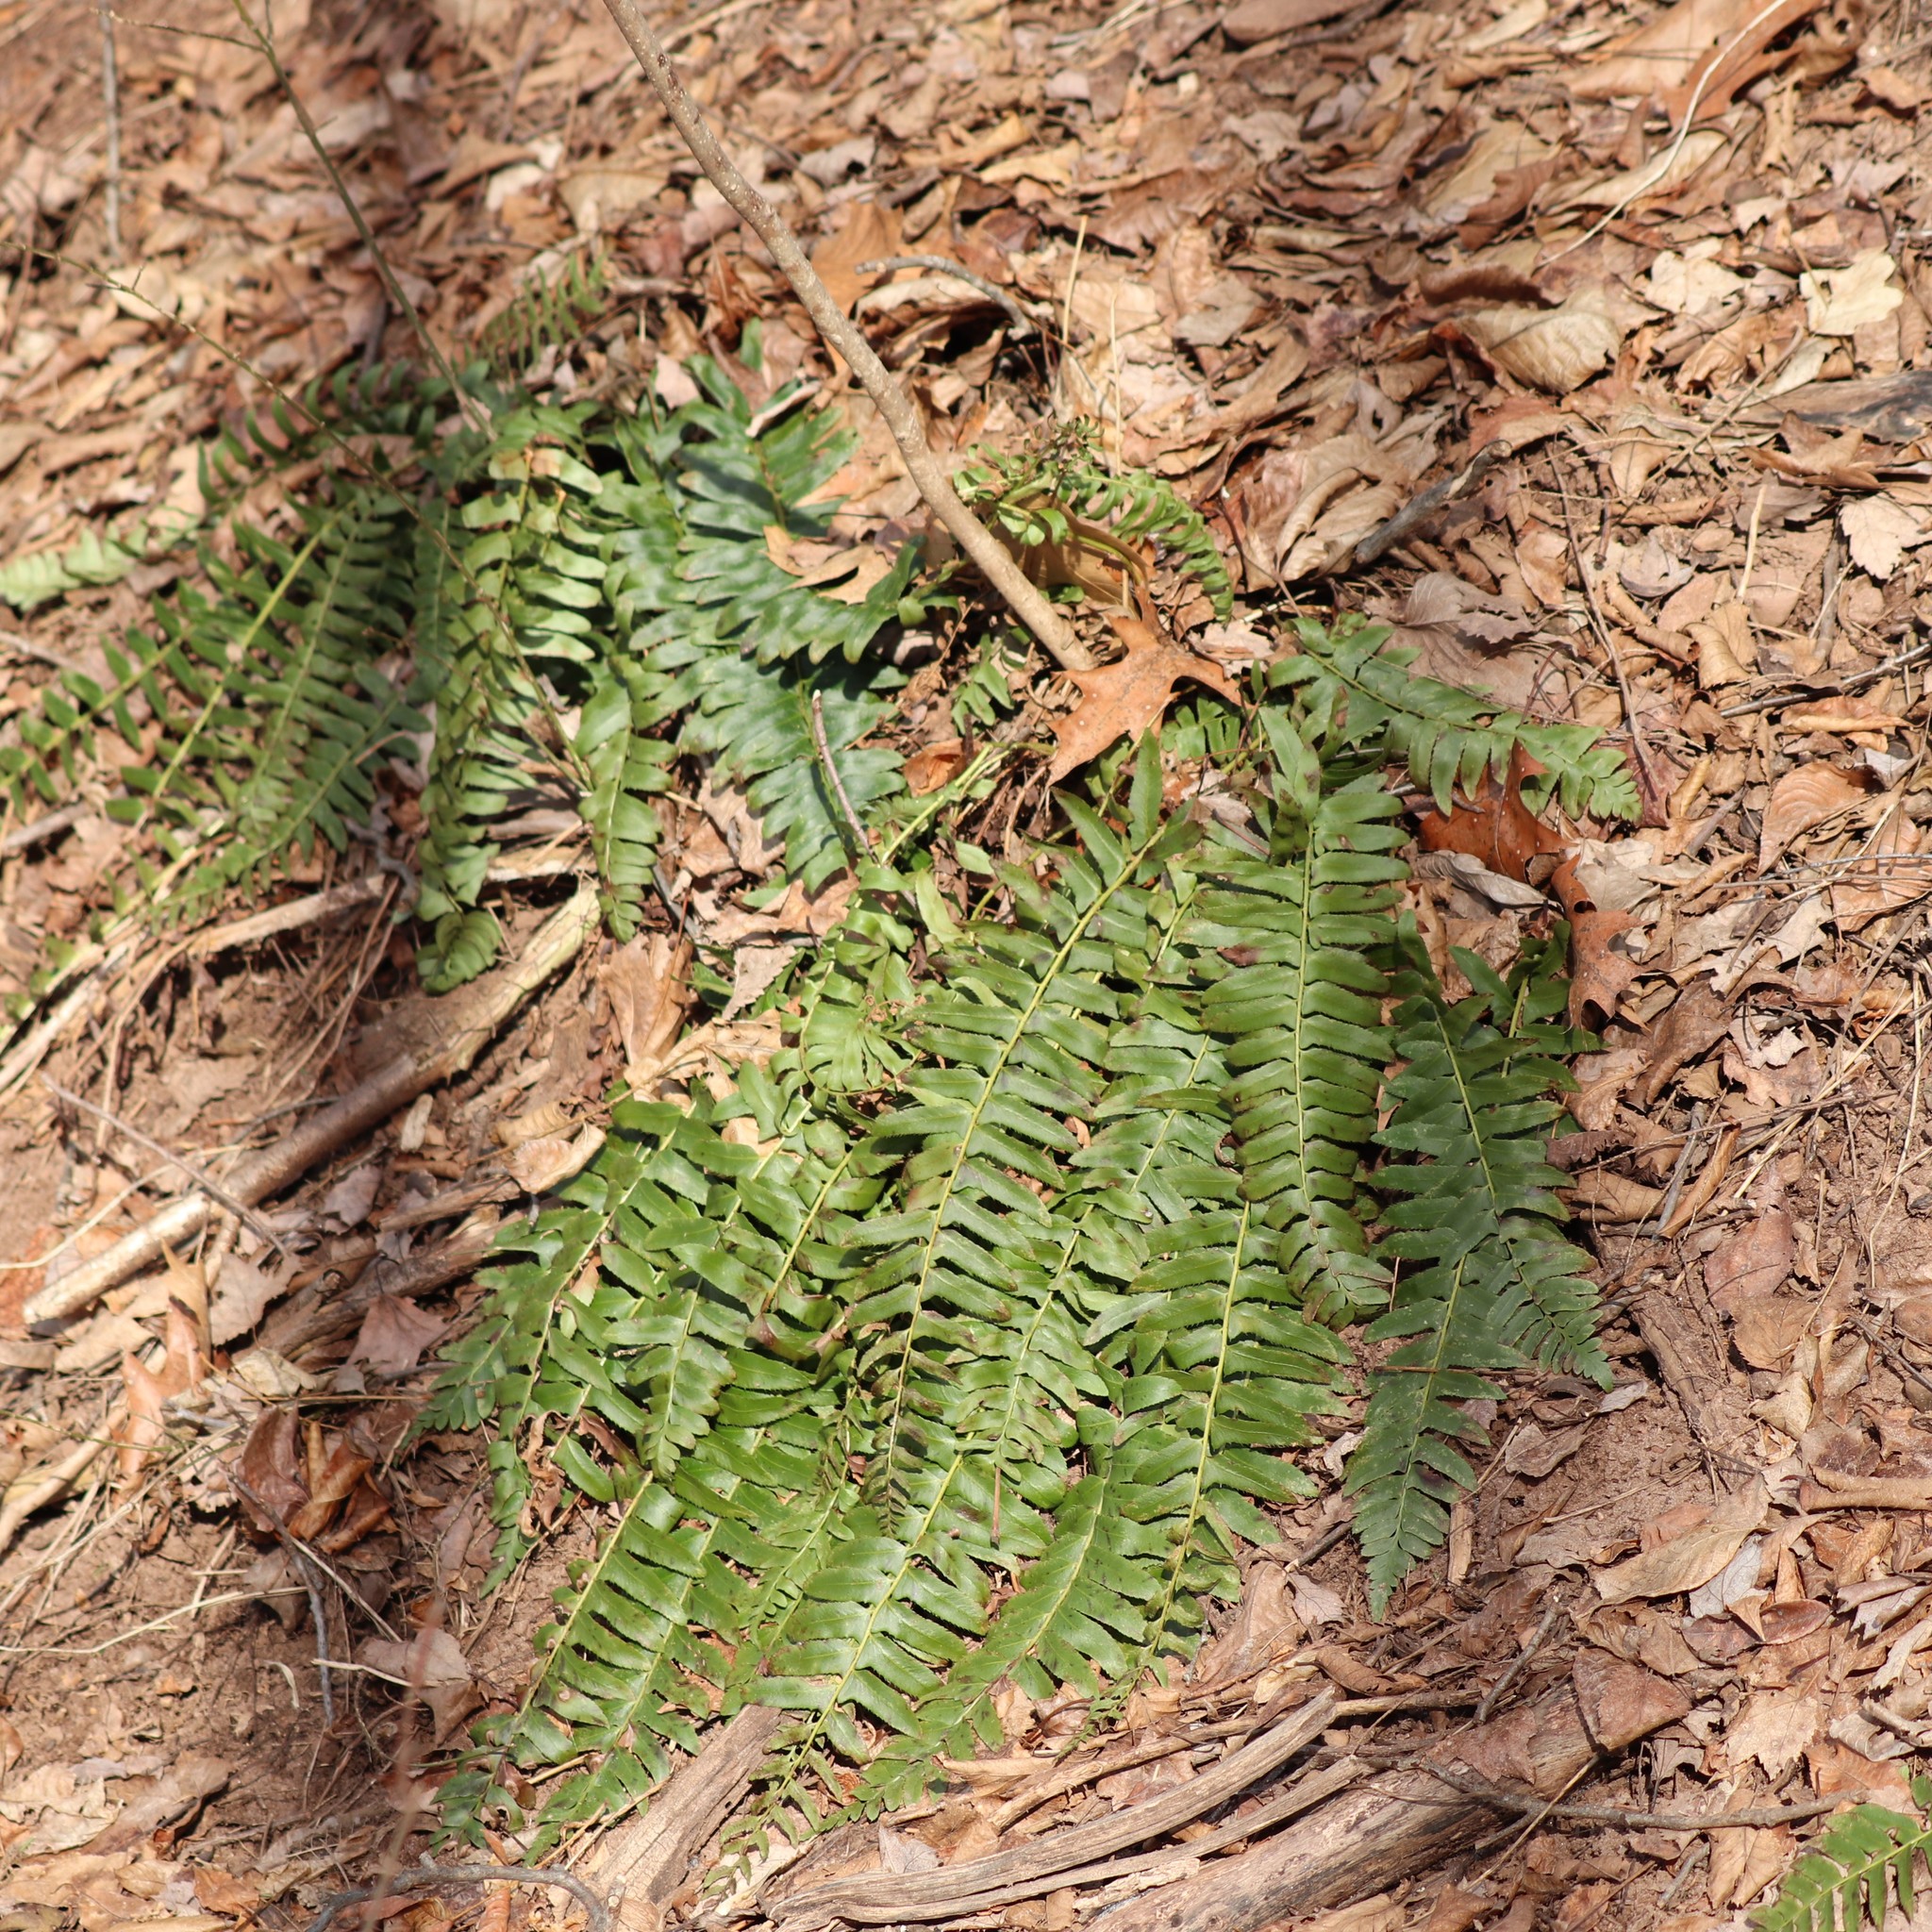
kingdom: Plantae
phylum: Tracheophyta
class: Polypodiopsida
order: Polypodiales
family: Dryopteridaceae
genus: Polystichum
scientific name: Polystichum acrostichoides
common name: Christmas fern
